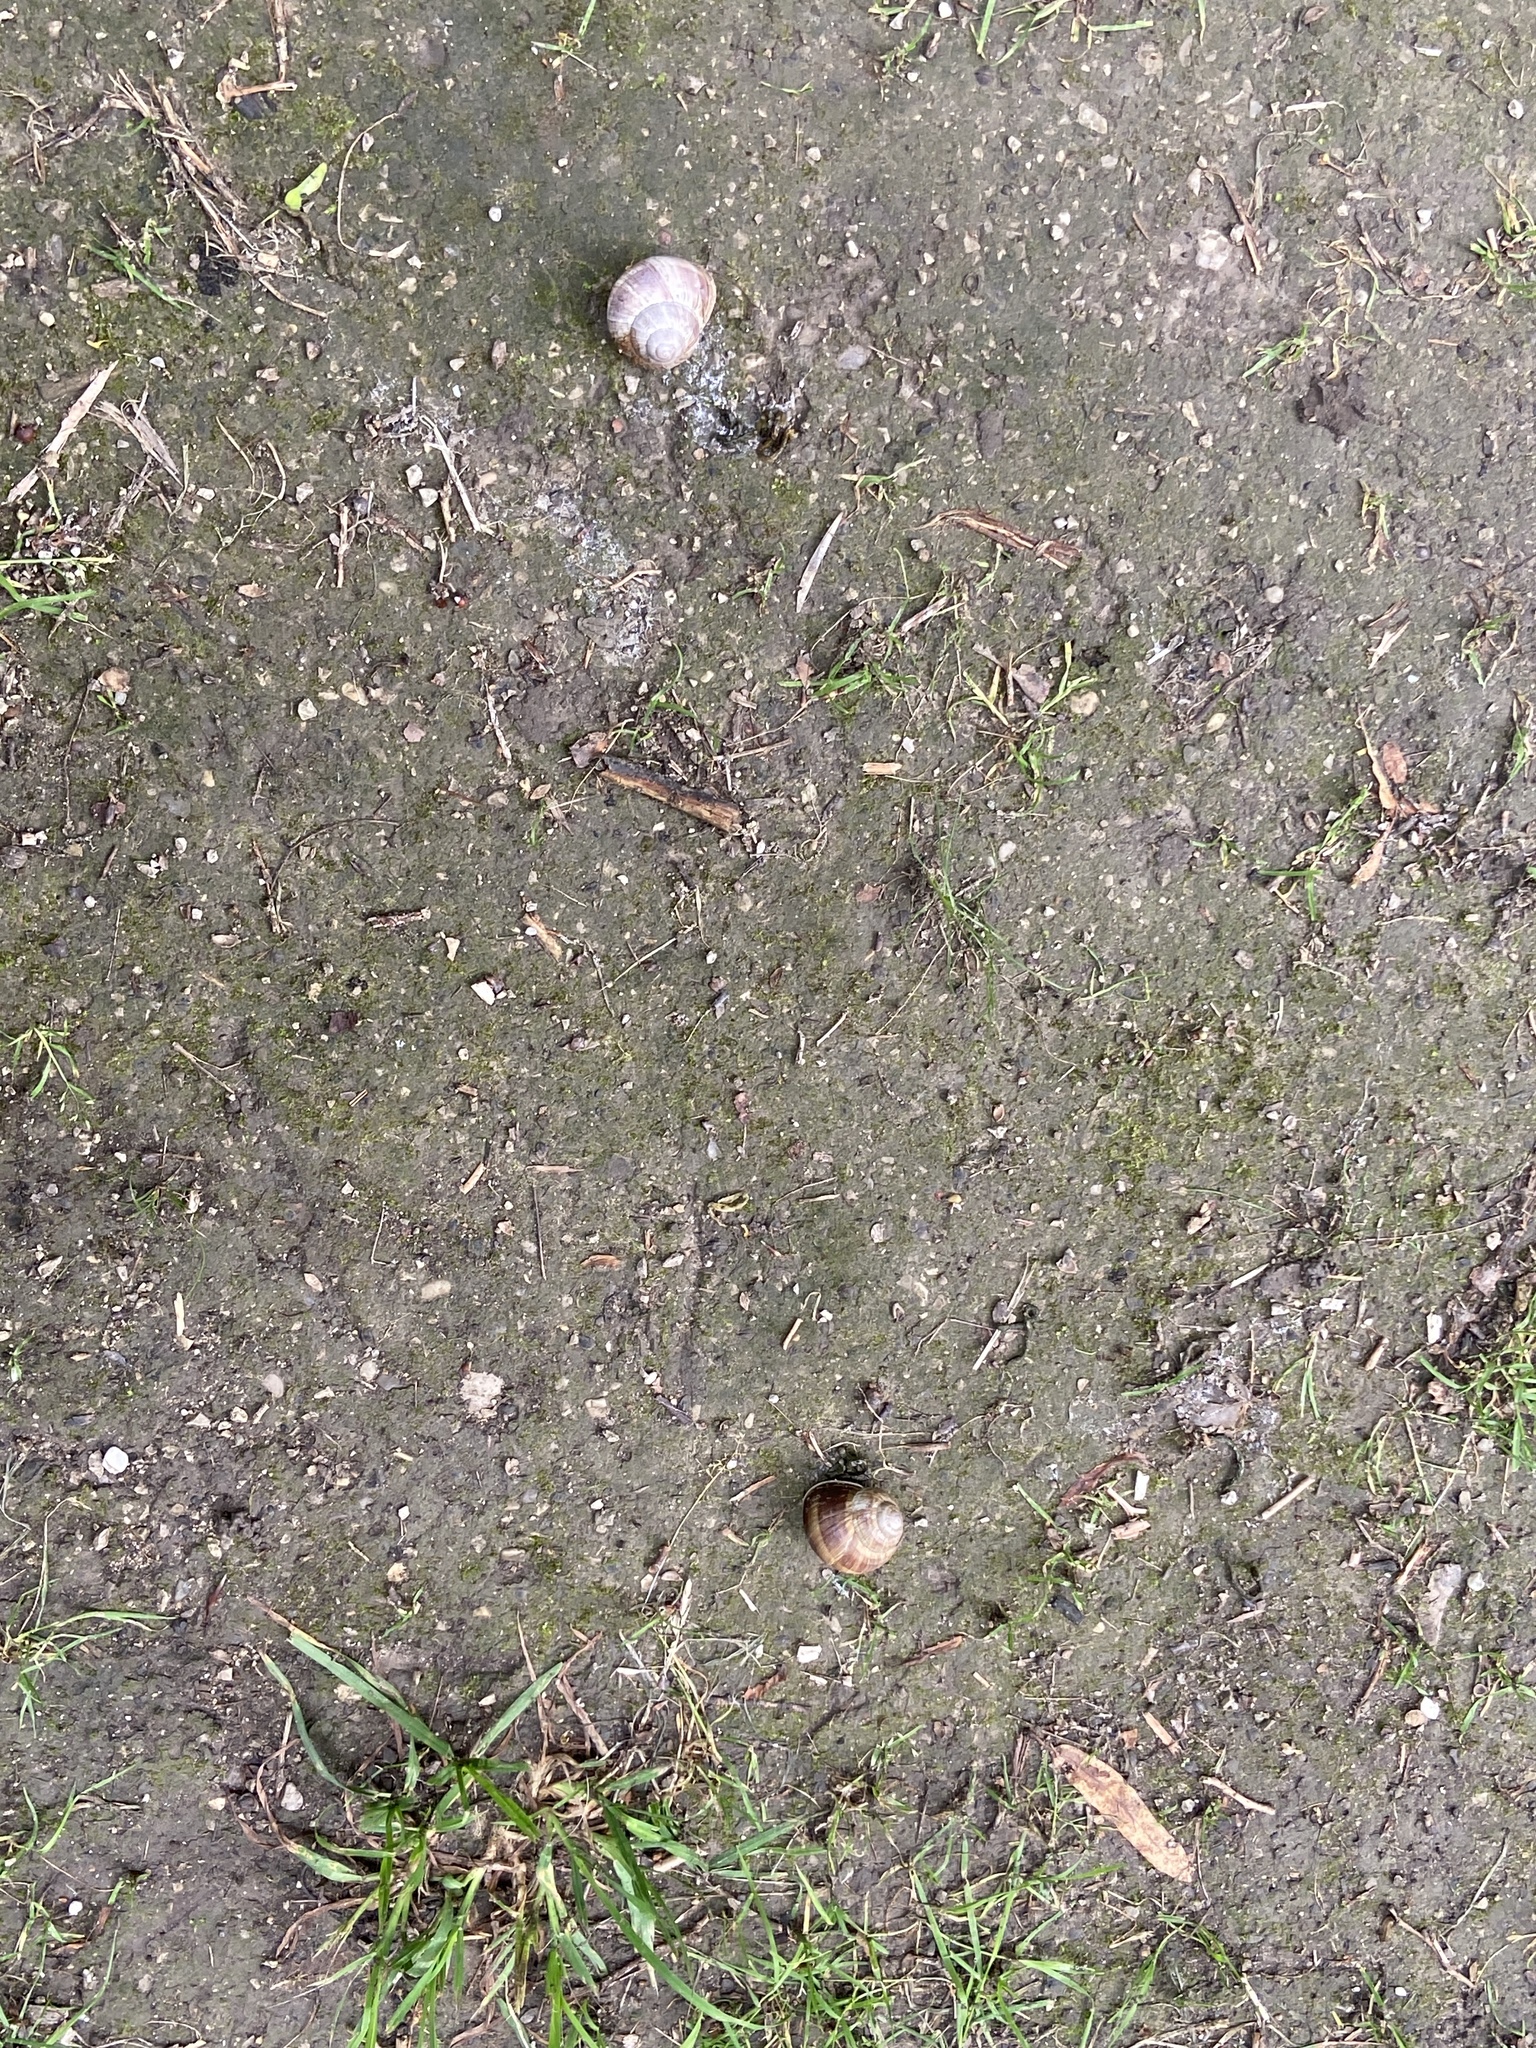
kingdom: Animalia
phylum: Mollusca
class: Gastropoda
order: Stylommatophora
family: Helicidae
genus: Helix
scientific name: Helix pomatia
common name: Roman snail
